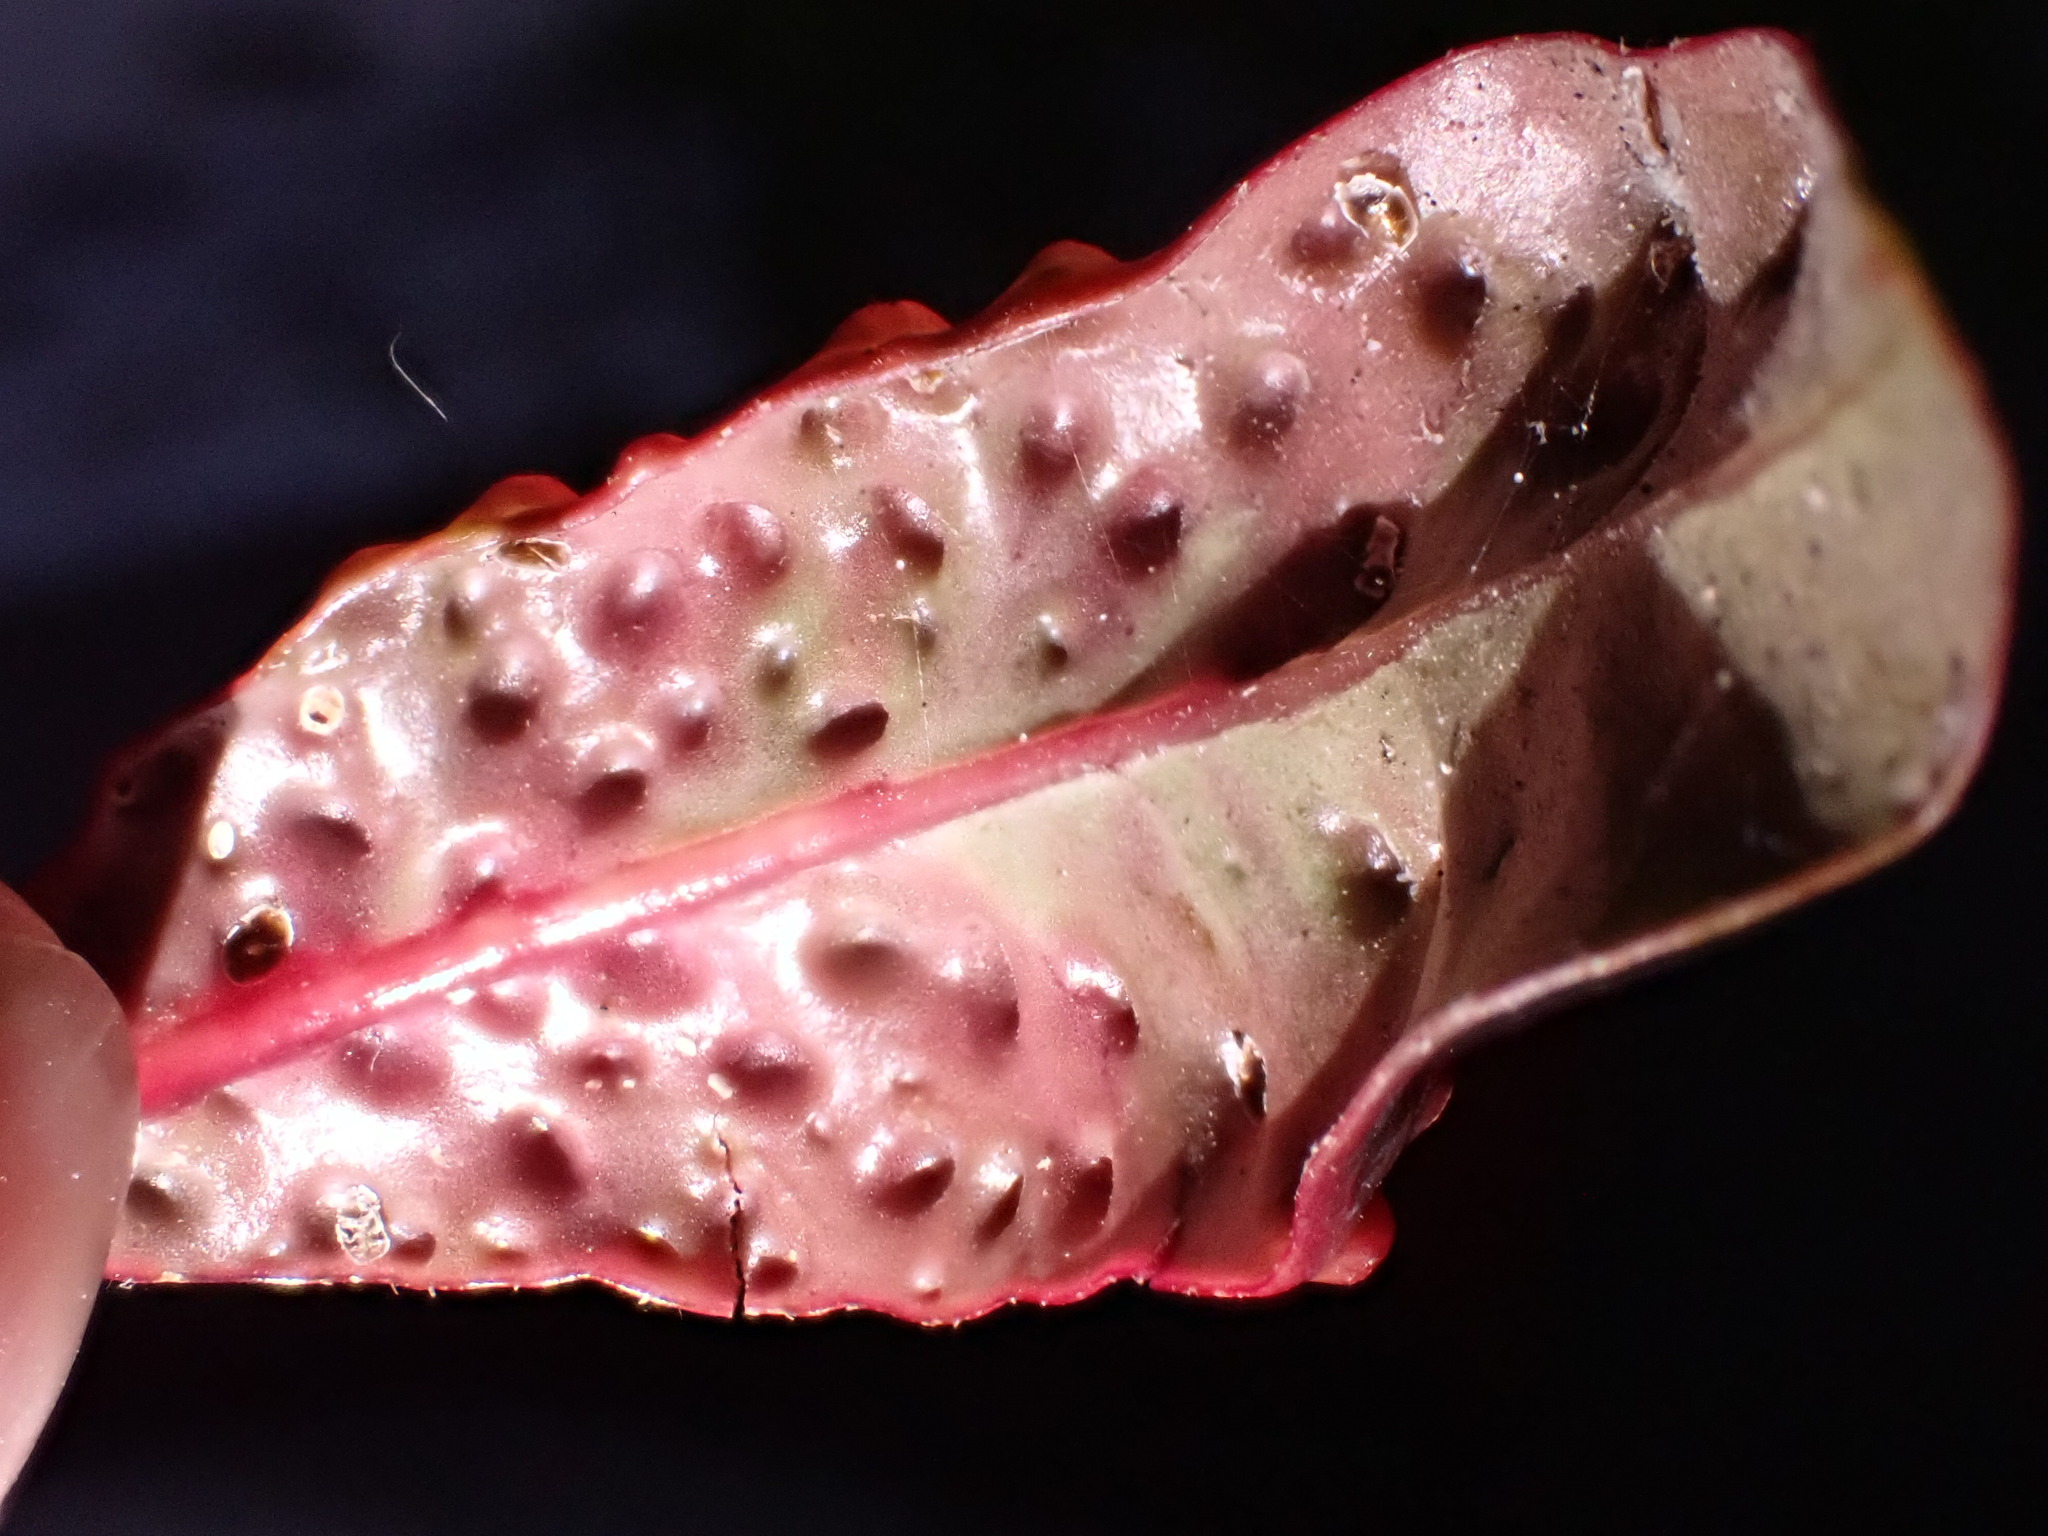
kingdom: Animalia
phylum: Arthropoda
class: Insecta
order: Hemiptera
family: Triozidae
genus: Trioza
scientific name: Trioza adventicia
